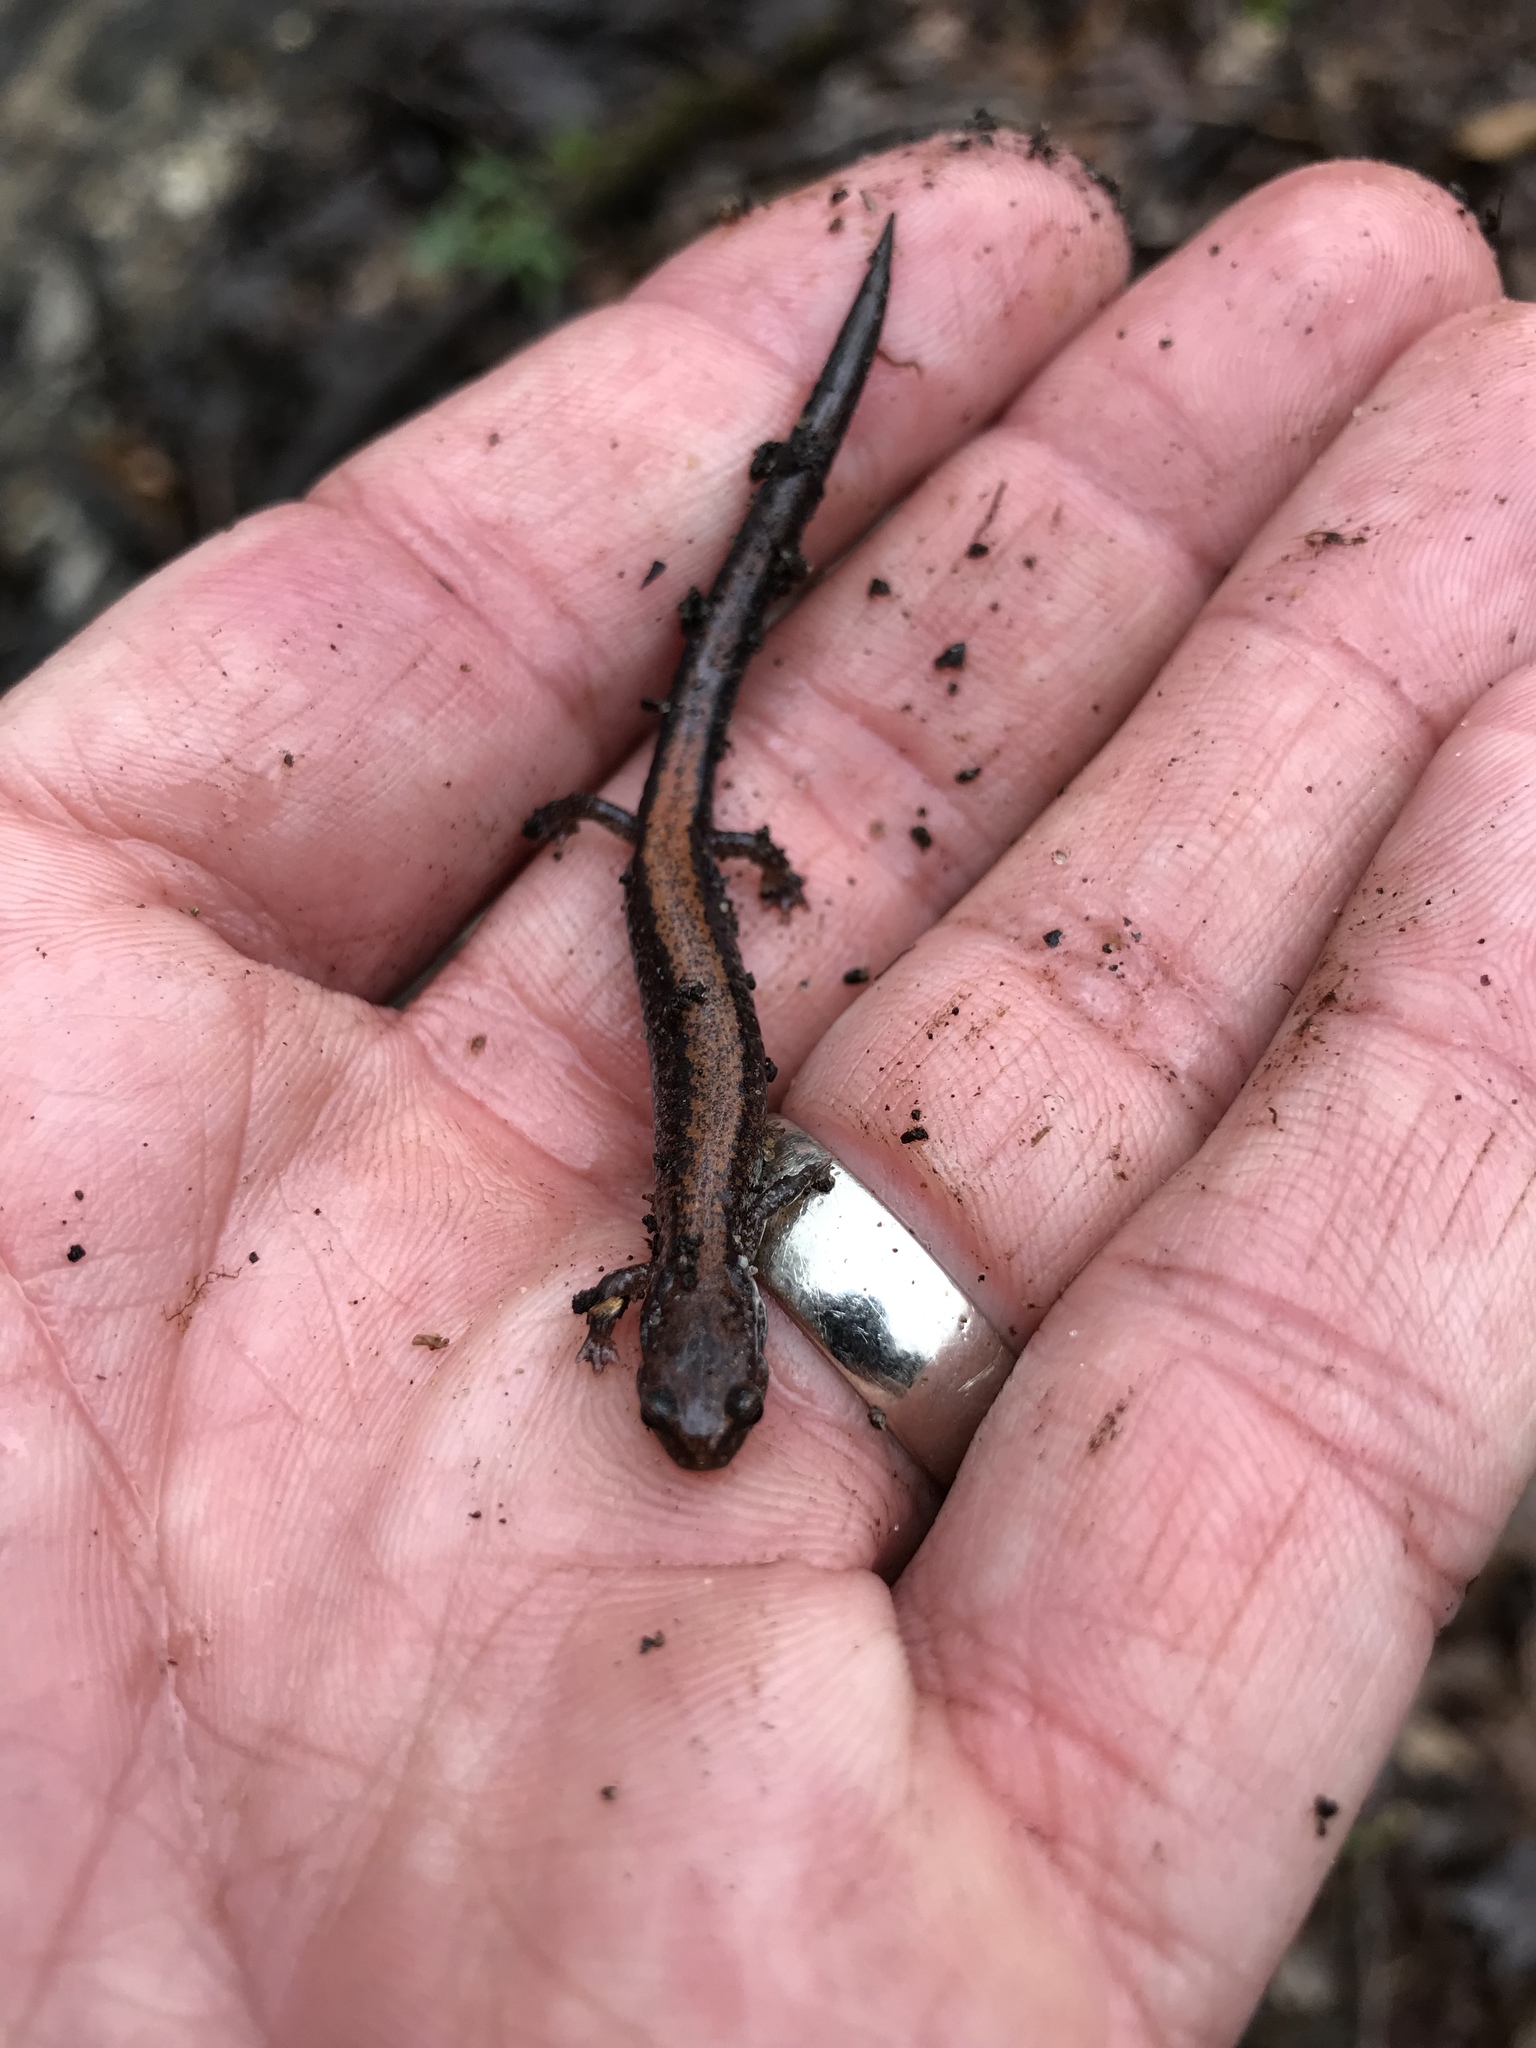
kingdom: Animalia
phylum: Chordata
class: Amphibia
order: Caudata
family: Plethodontidae
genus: Plethodon
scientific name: Plethodon cinereus
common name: Redback salamander
